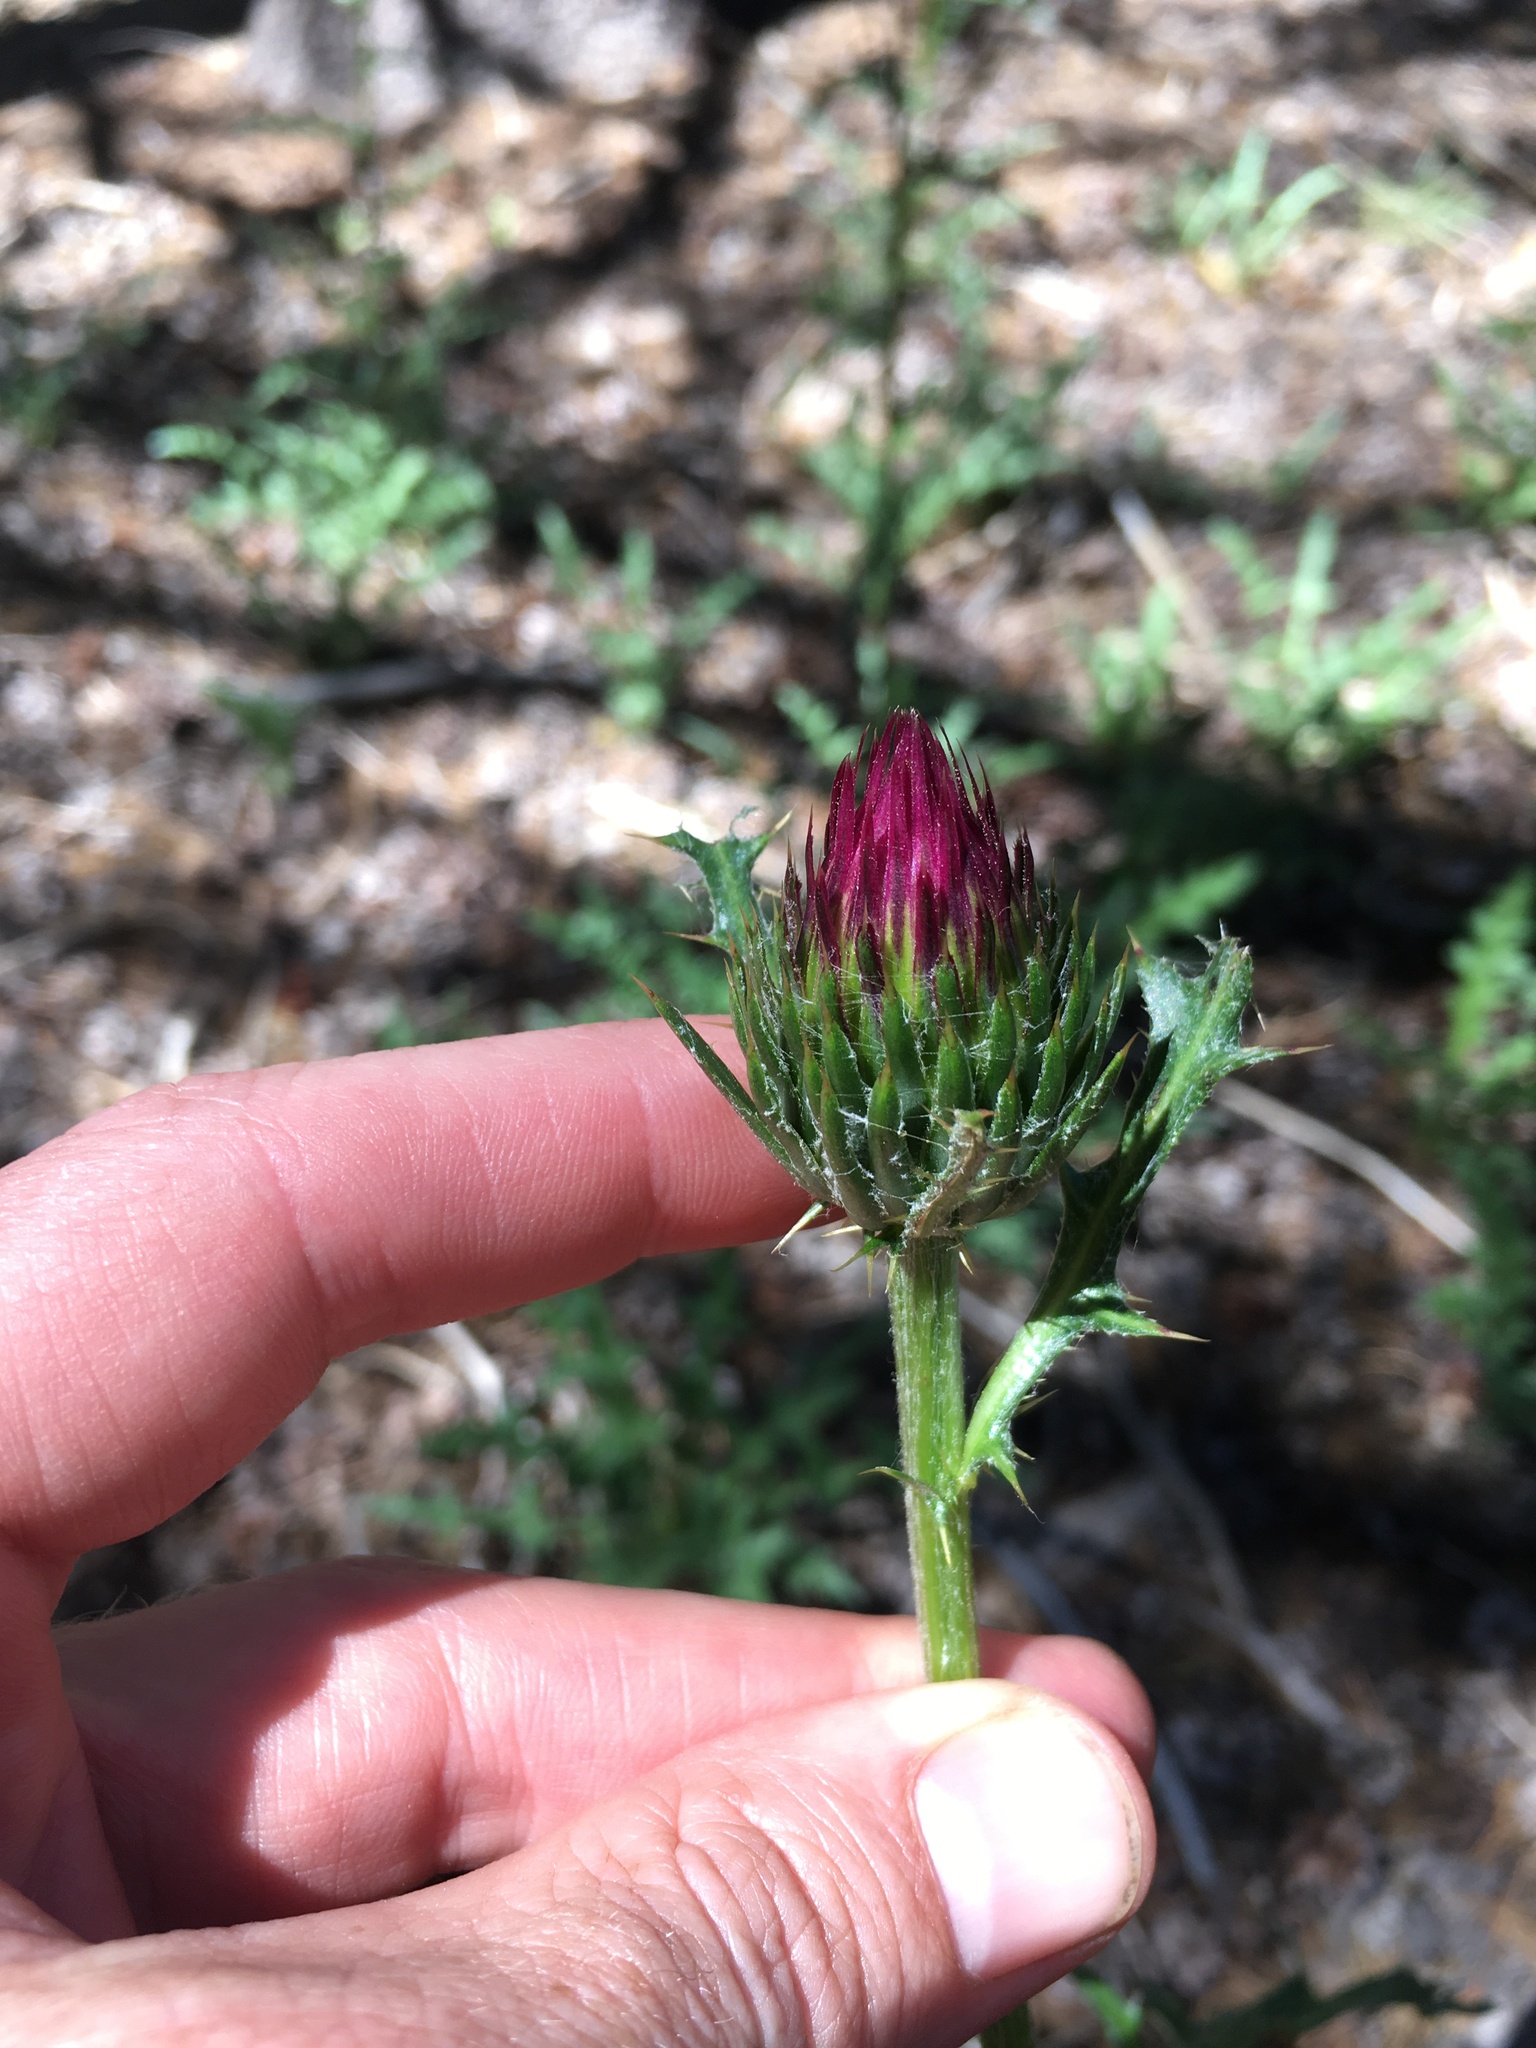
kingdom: Plantae
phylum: Tracheophyta
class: Magnoliopsida
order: Asterales
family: Asteraceae
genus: Cirsium
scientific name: Cirsium andersonii
